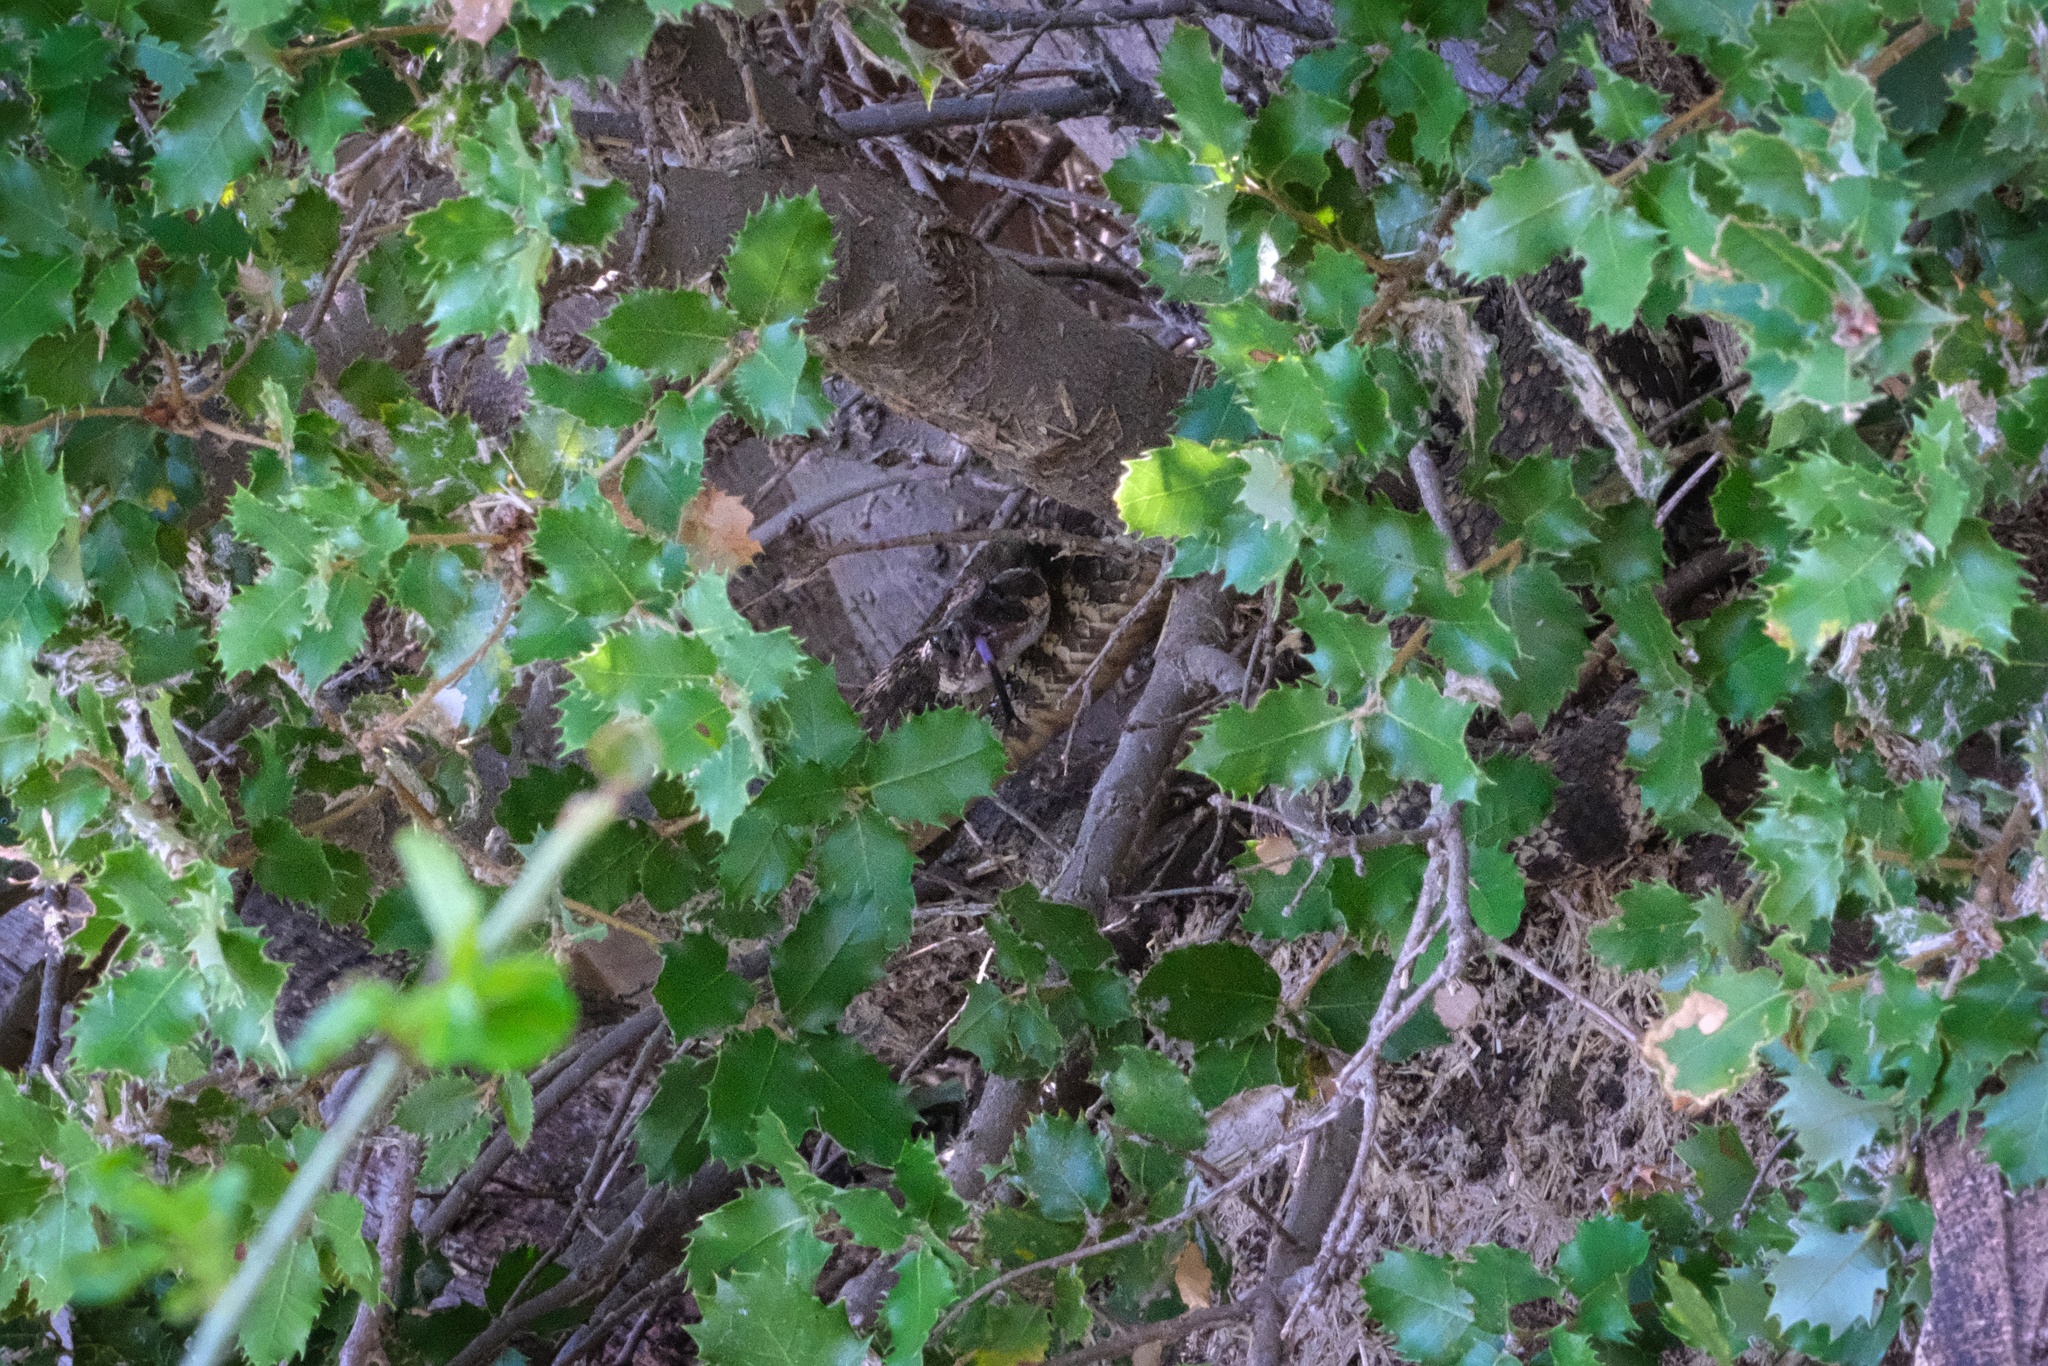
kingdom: Animalia
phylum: Chordata
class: Squamata
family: Viperidae
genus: Crotalus
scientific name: Crotalus oreganus
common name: Abyssus
